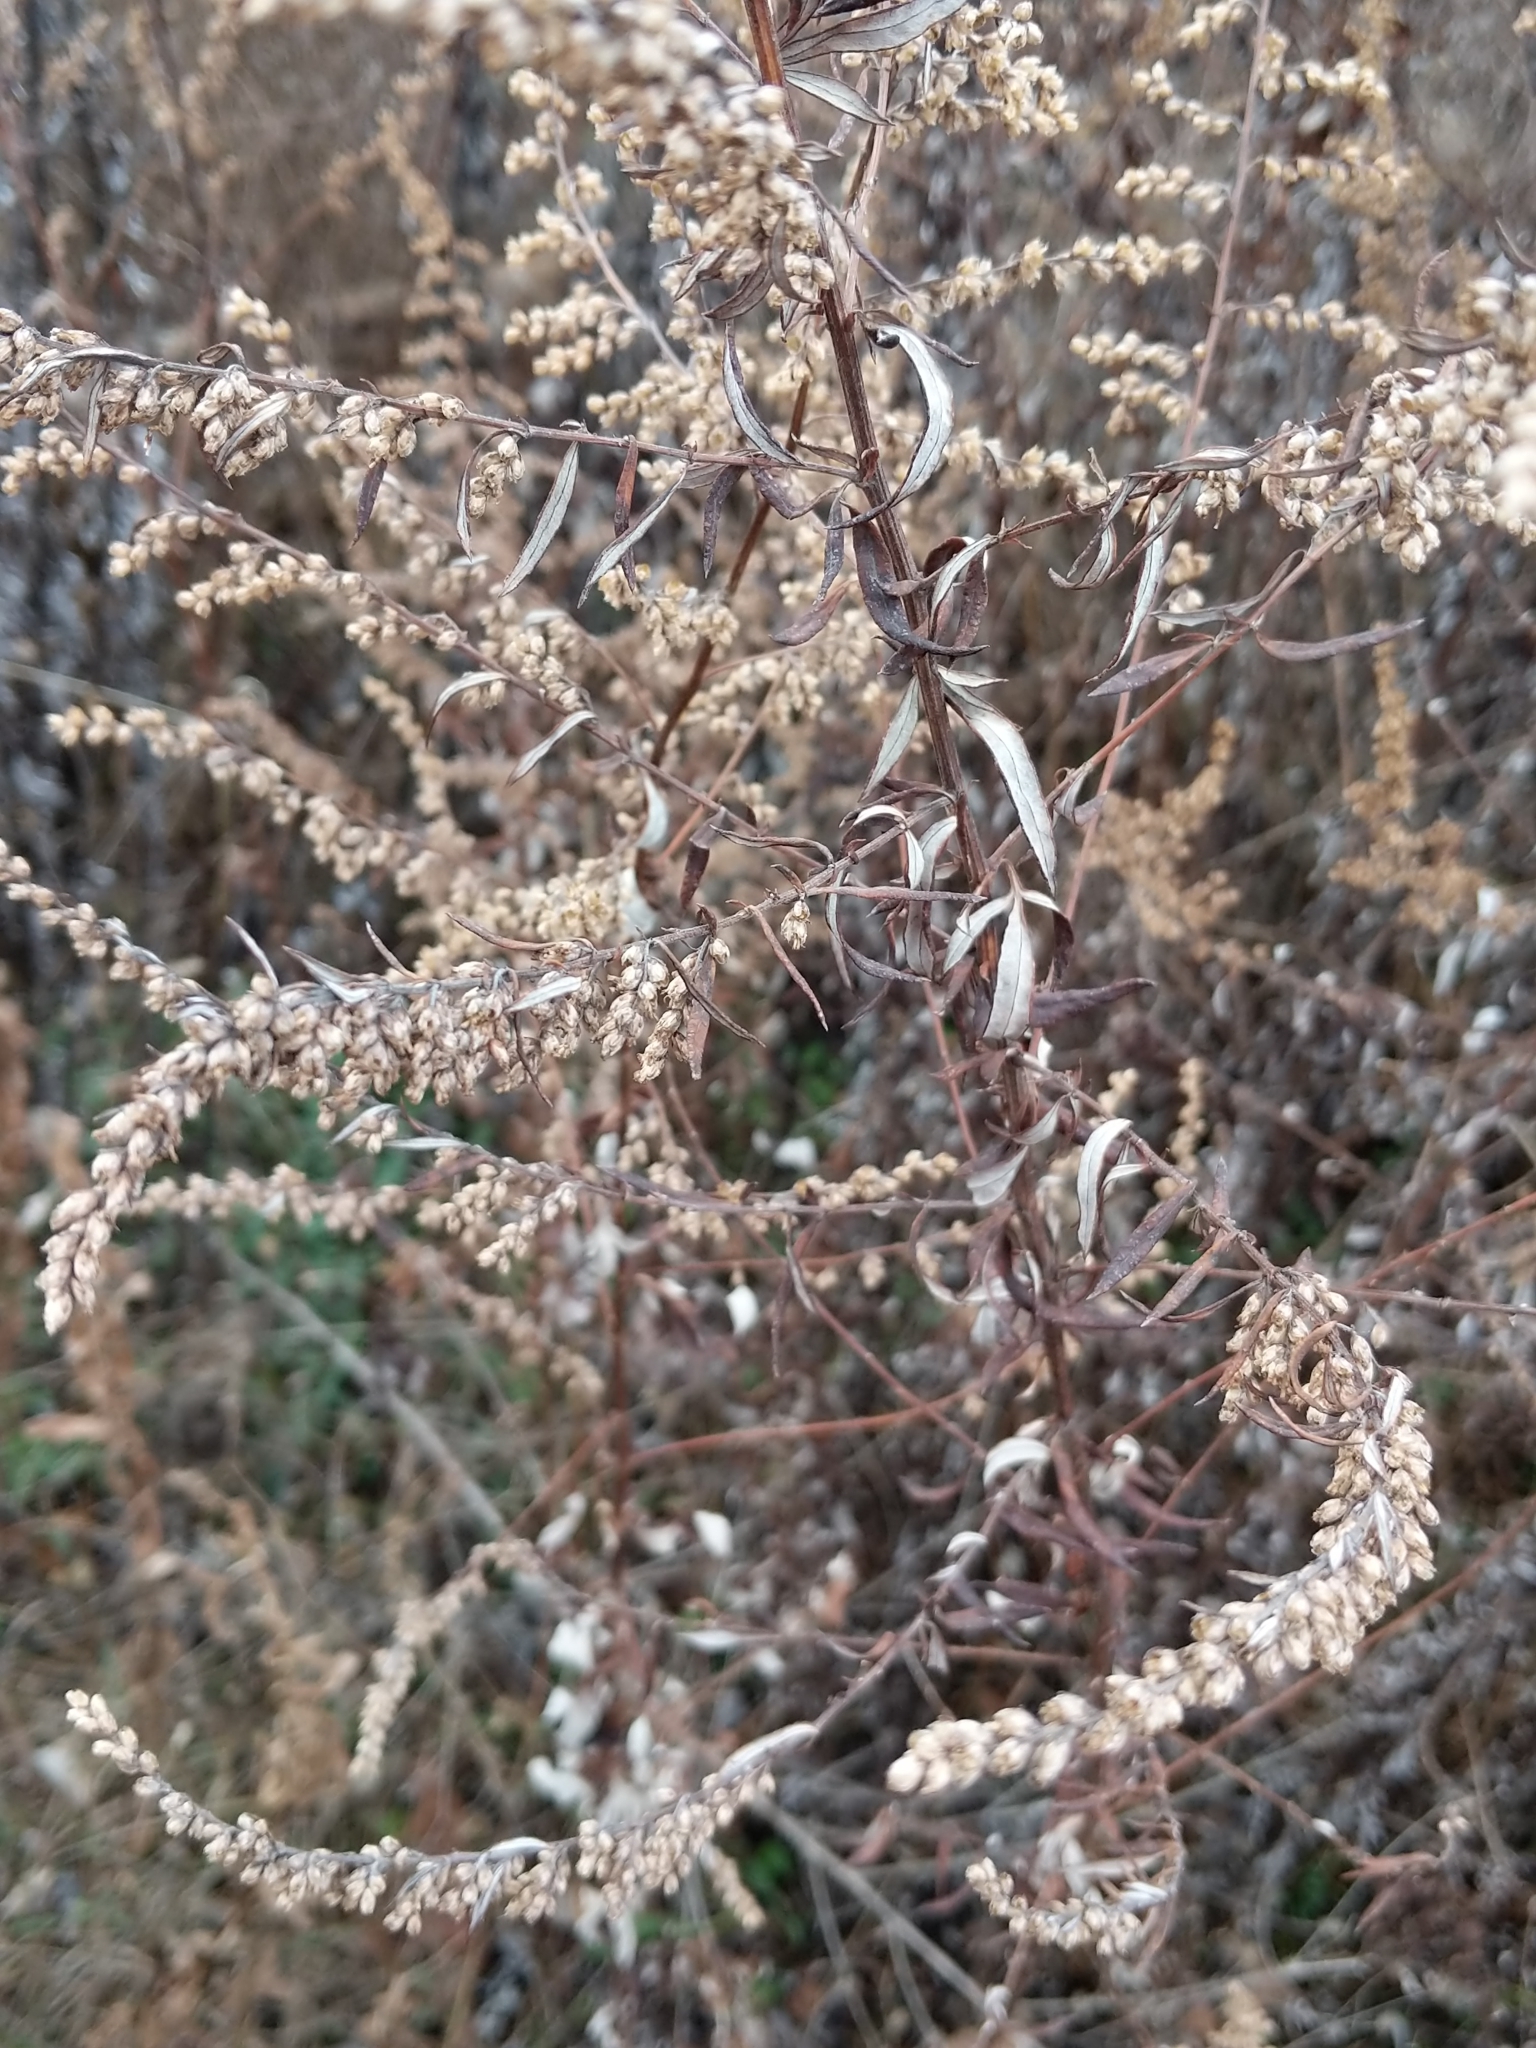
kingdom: Plantae
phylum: Tracheophyta
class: Magnoliopsida
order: Asterales
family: Asteraceae
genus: Artemisia
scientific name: Artemisia vulgaris
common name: Mugwort
